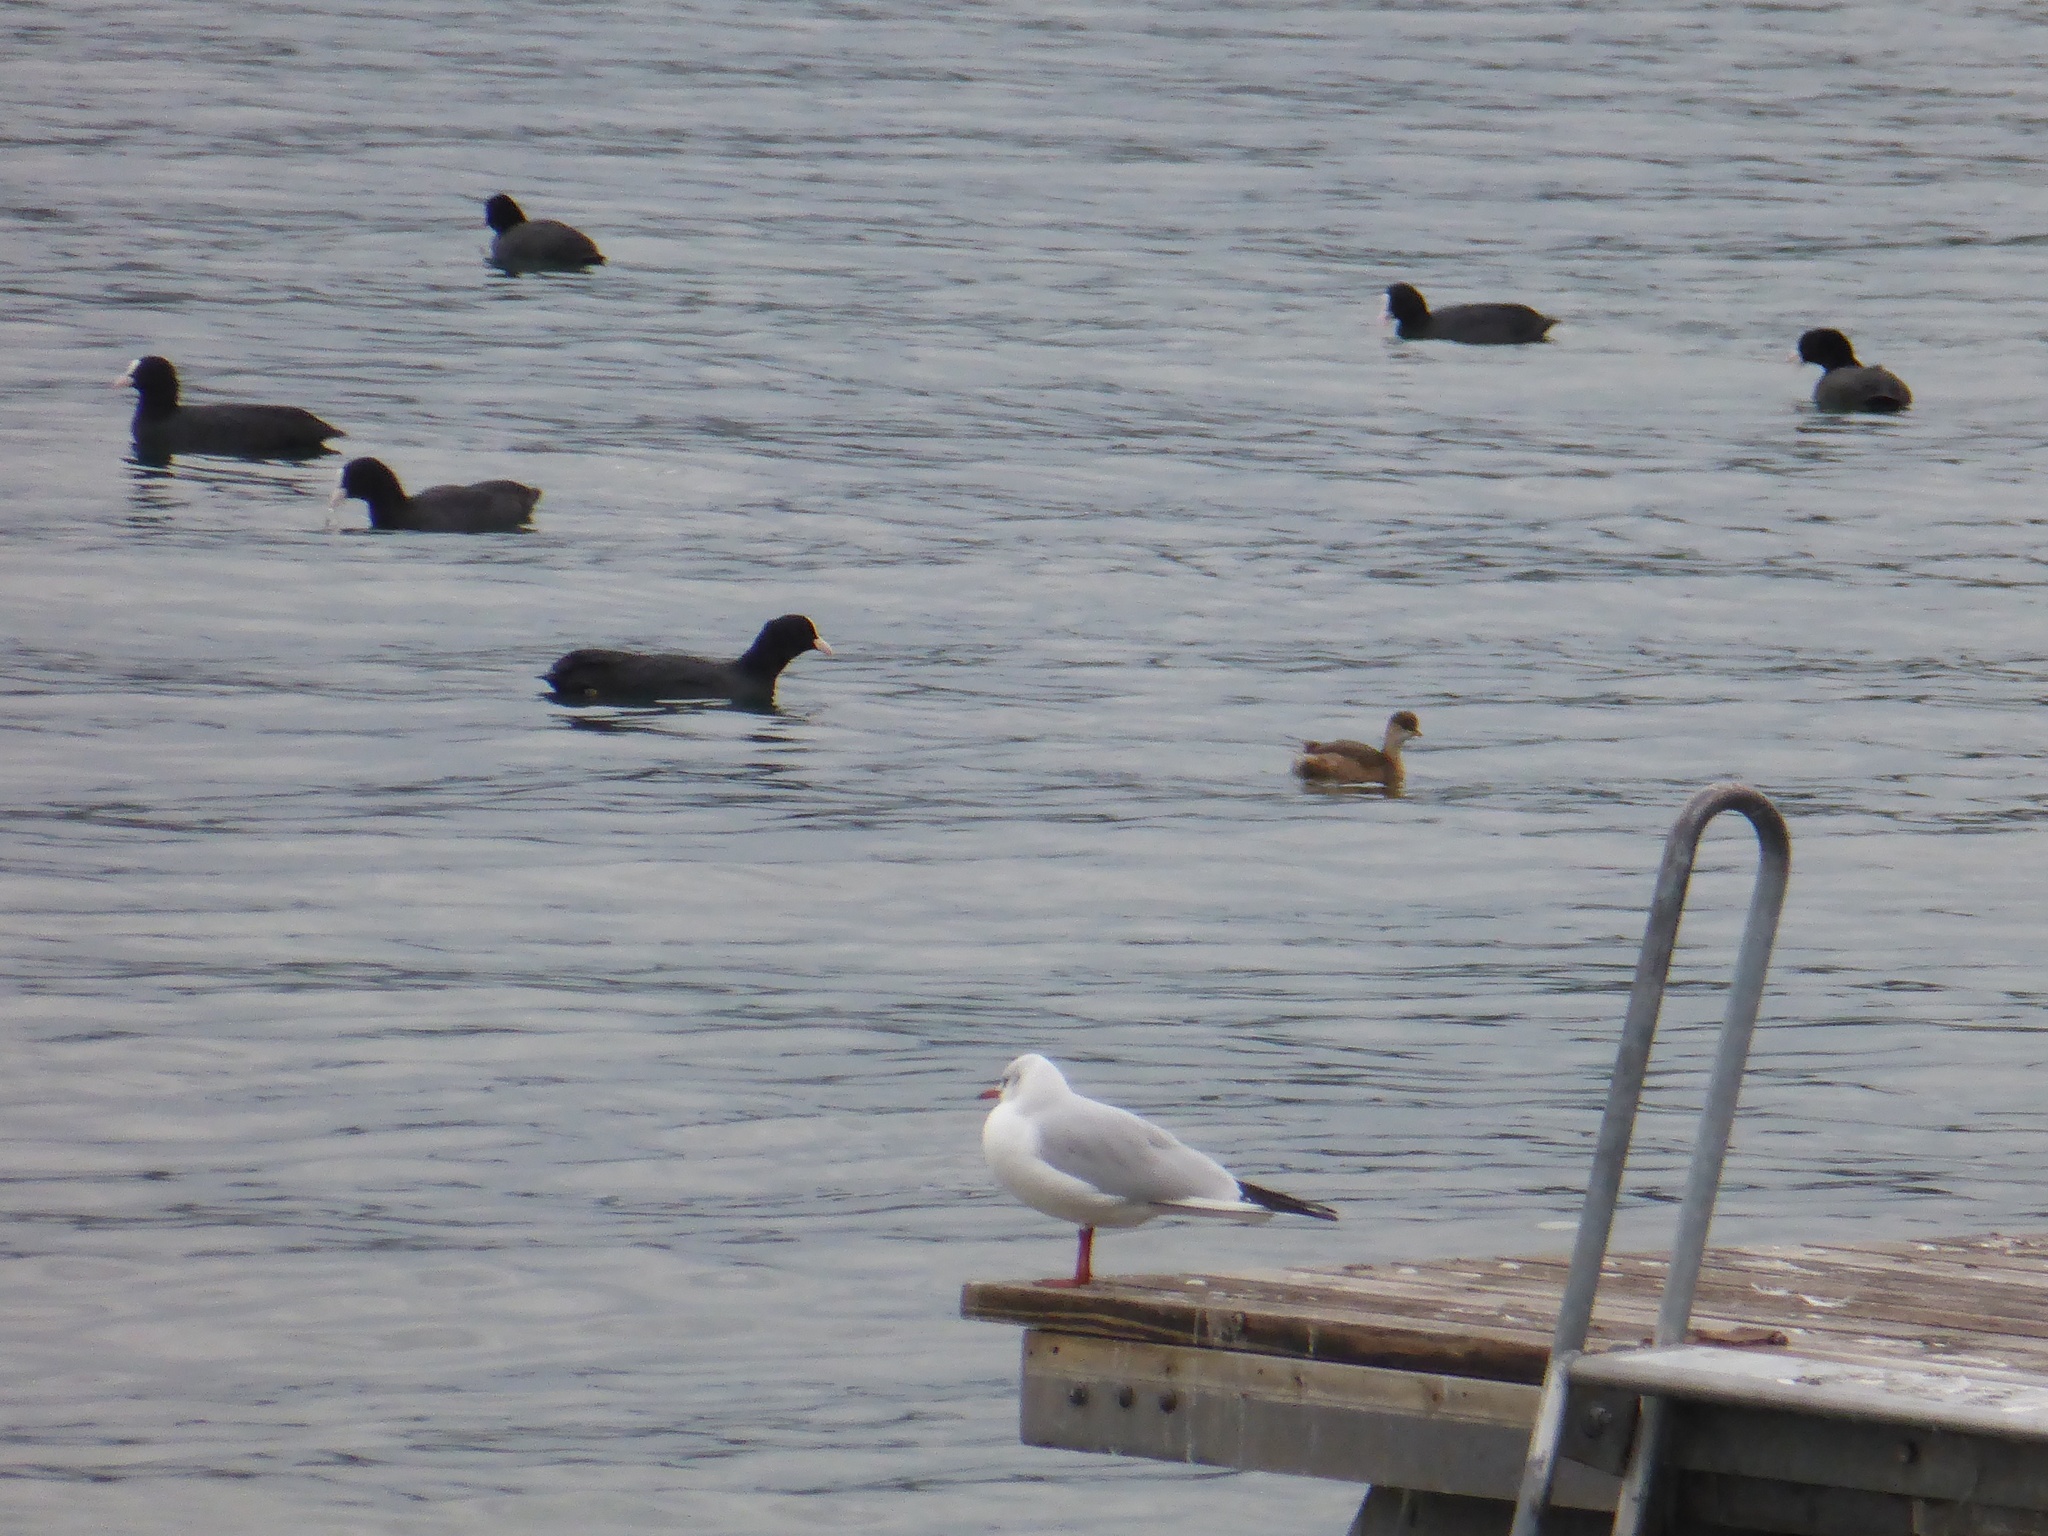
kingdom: Animalia
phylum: Chordata
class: Aves
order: Gruiformes
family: Rallidae
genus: Fulica
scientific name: Fulica atra
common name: Eurasian coot
